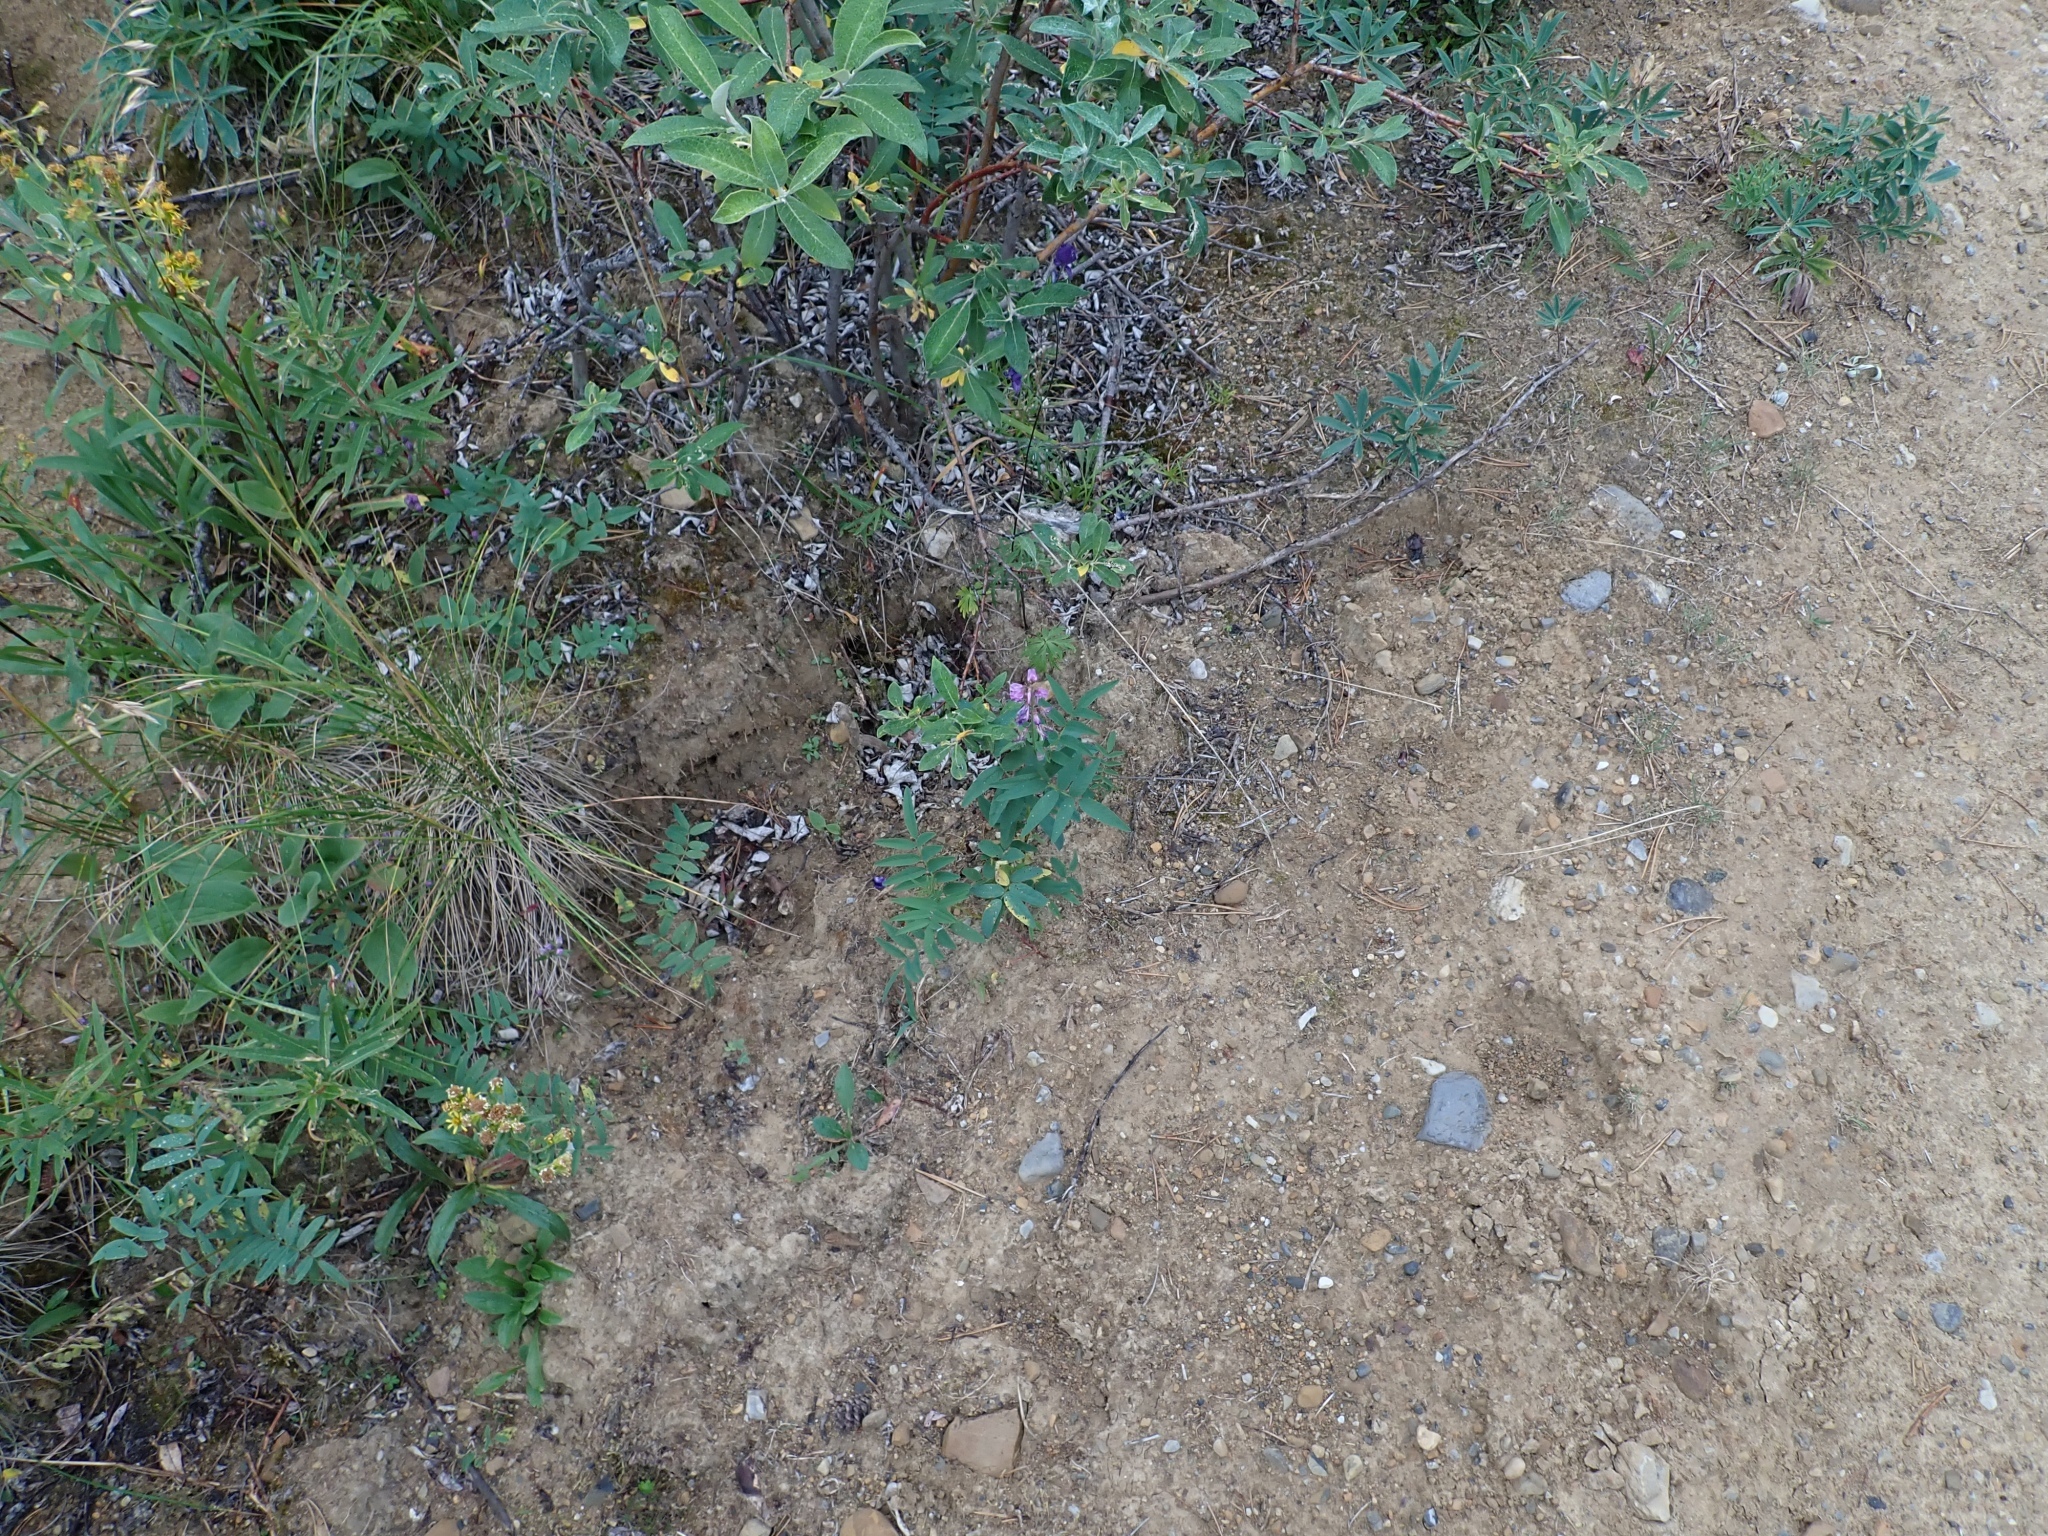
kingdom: Plantae
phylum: Tracheophyta
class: Magnoliopsida
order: Fabales
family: Fabaceae
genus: Hedysarum
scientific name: Hedysarum alpinum
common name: Alpine sweet-vetch
